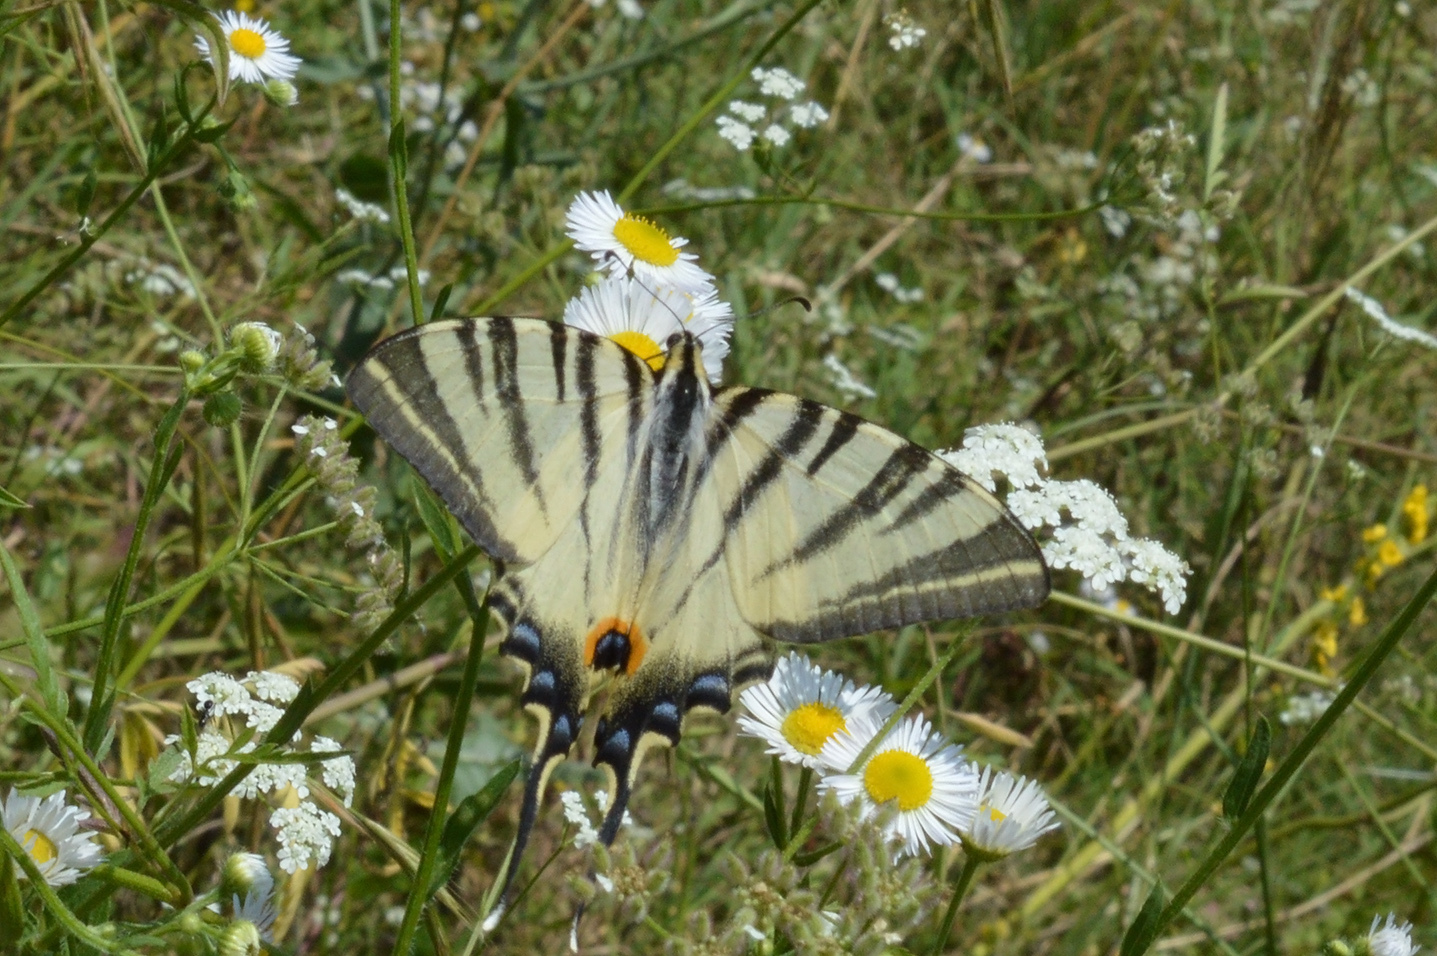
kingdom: Animalia
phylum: Arthropoda
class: Insecta
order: Lepidoptera
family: Papilionidae
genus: Iphiclides
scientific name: Iphiclides podalirius
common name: Scarce swallowtail
